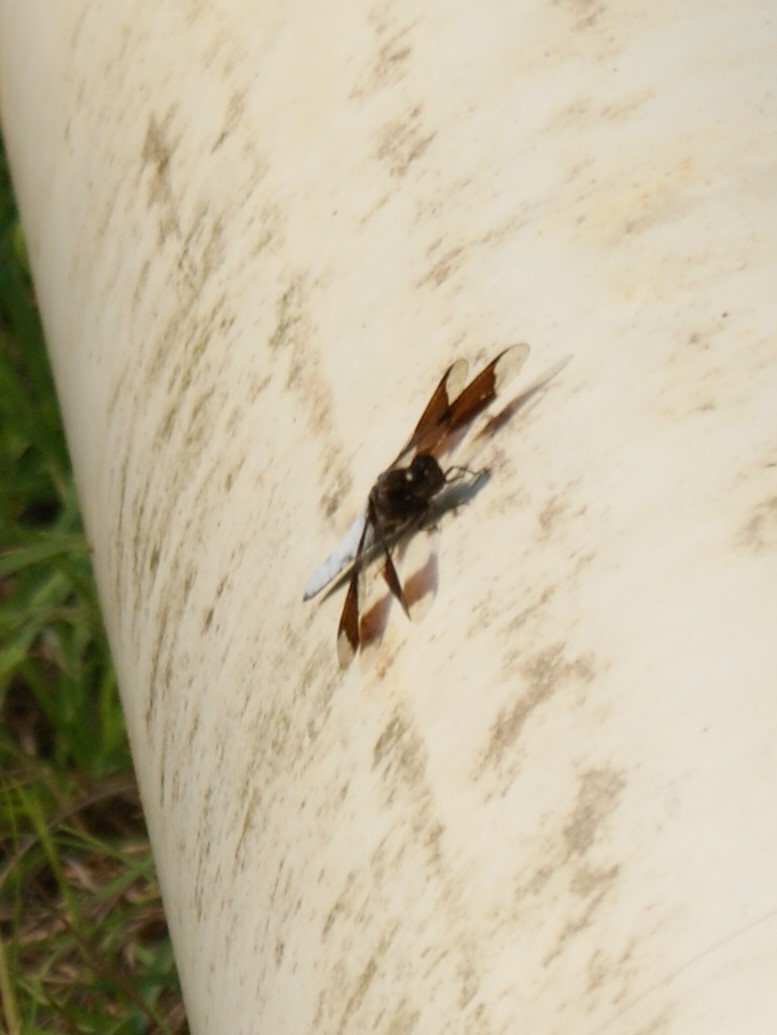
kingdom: Animalia
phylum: Arthropoda
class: Insecta
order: Odonata
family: Libellulidae
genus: Plathemis
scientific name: Plathemis lydia
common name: Common whitetail
